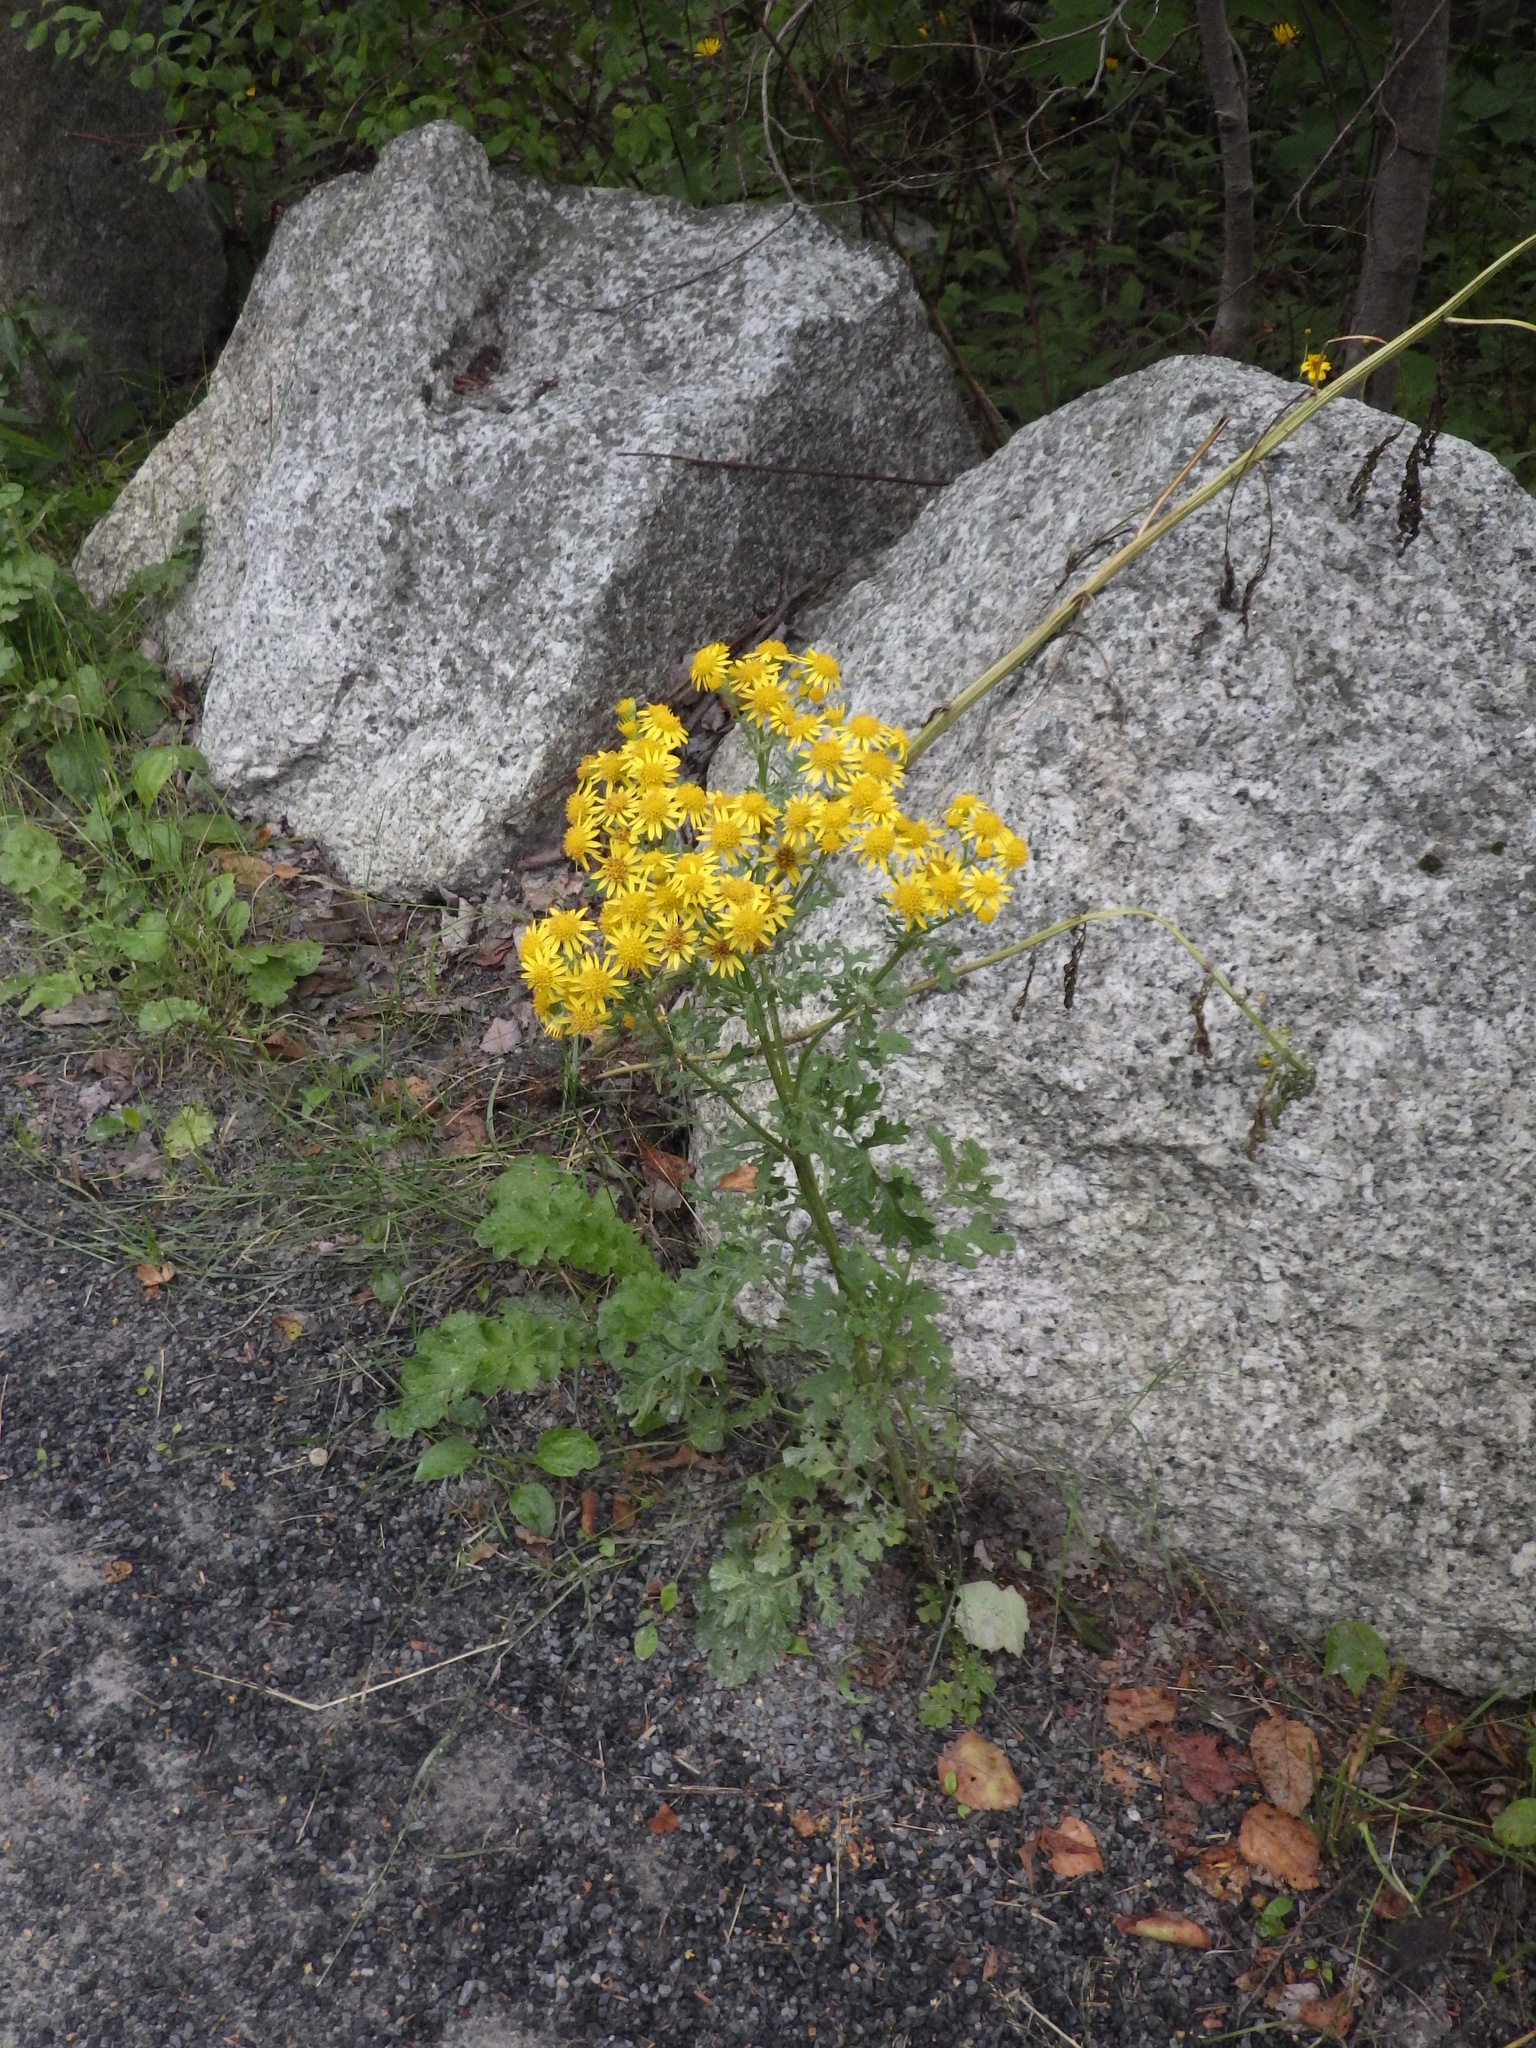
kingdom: Plantae
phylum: Tracheophyta
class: Magnoliopsida
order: Asterales
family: Asteraceae
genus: Jacobaea
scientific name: Jacobaea vulgaris
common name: Stinking willie
